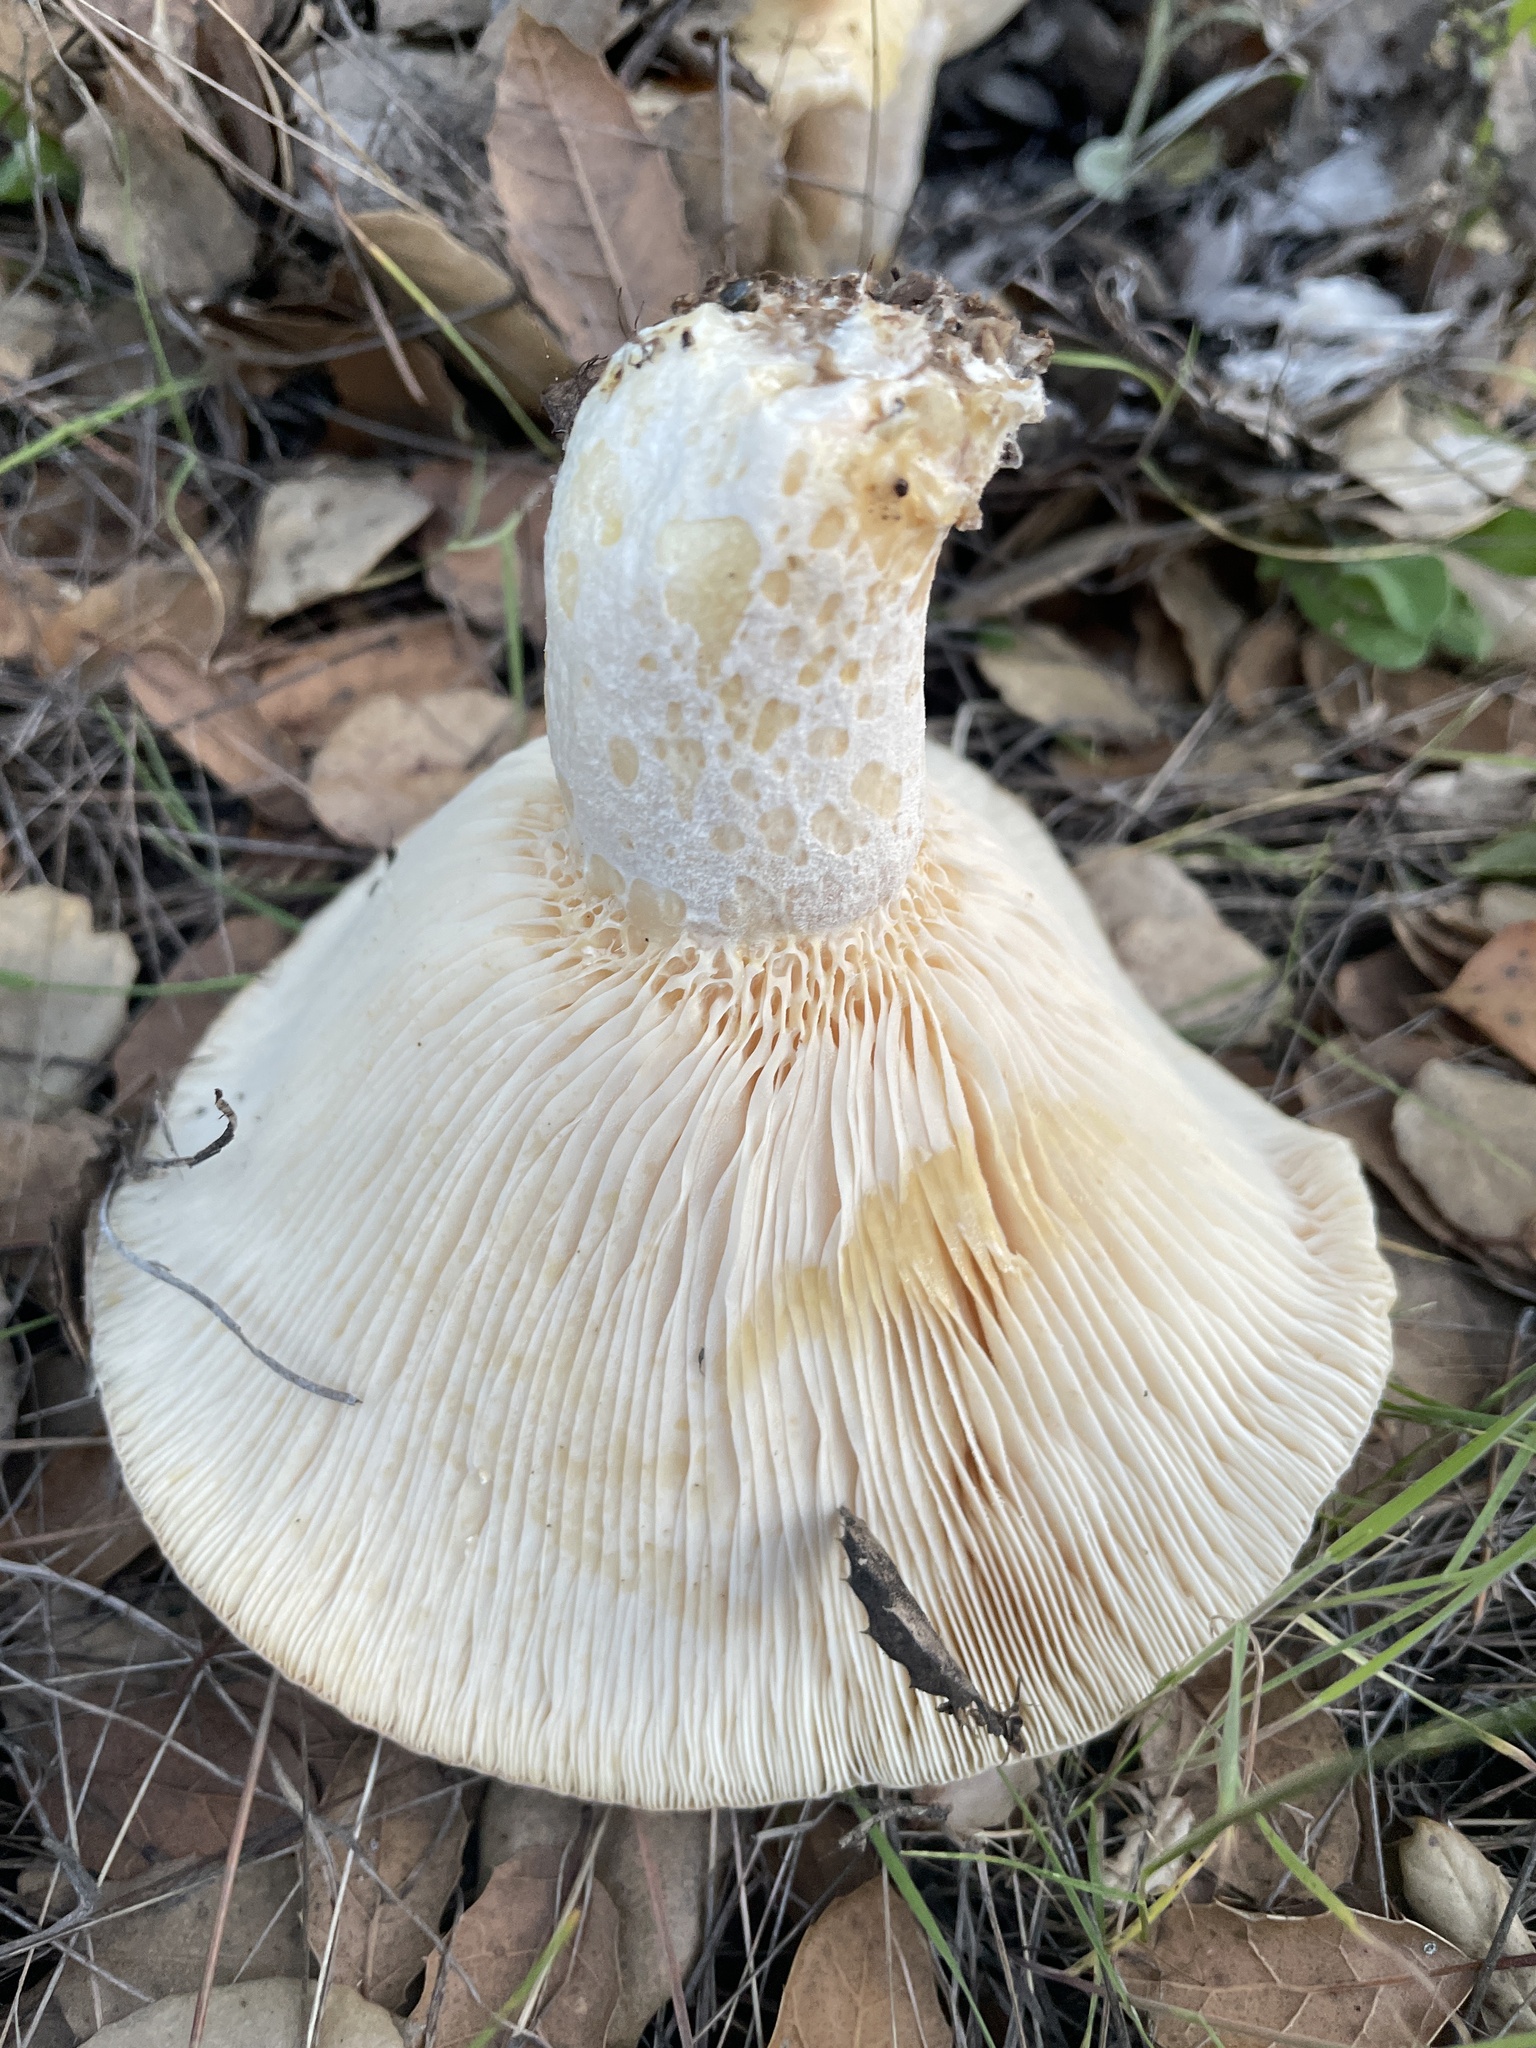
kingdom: Fungi
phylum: Basidiomycota
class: Agaricomycetes
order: Russulales
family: Russulaceae
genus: Lactarius
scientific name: Lactarius alnicola
